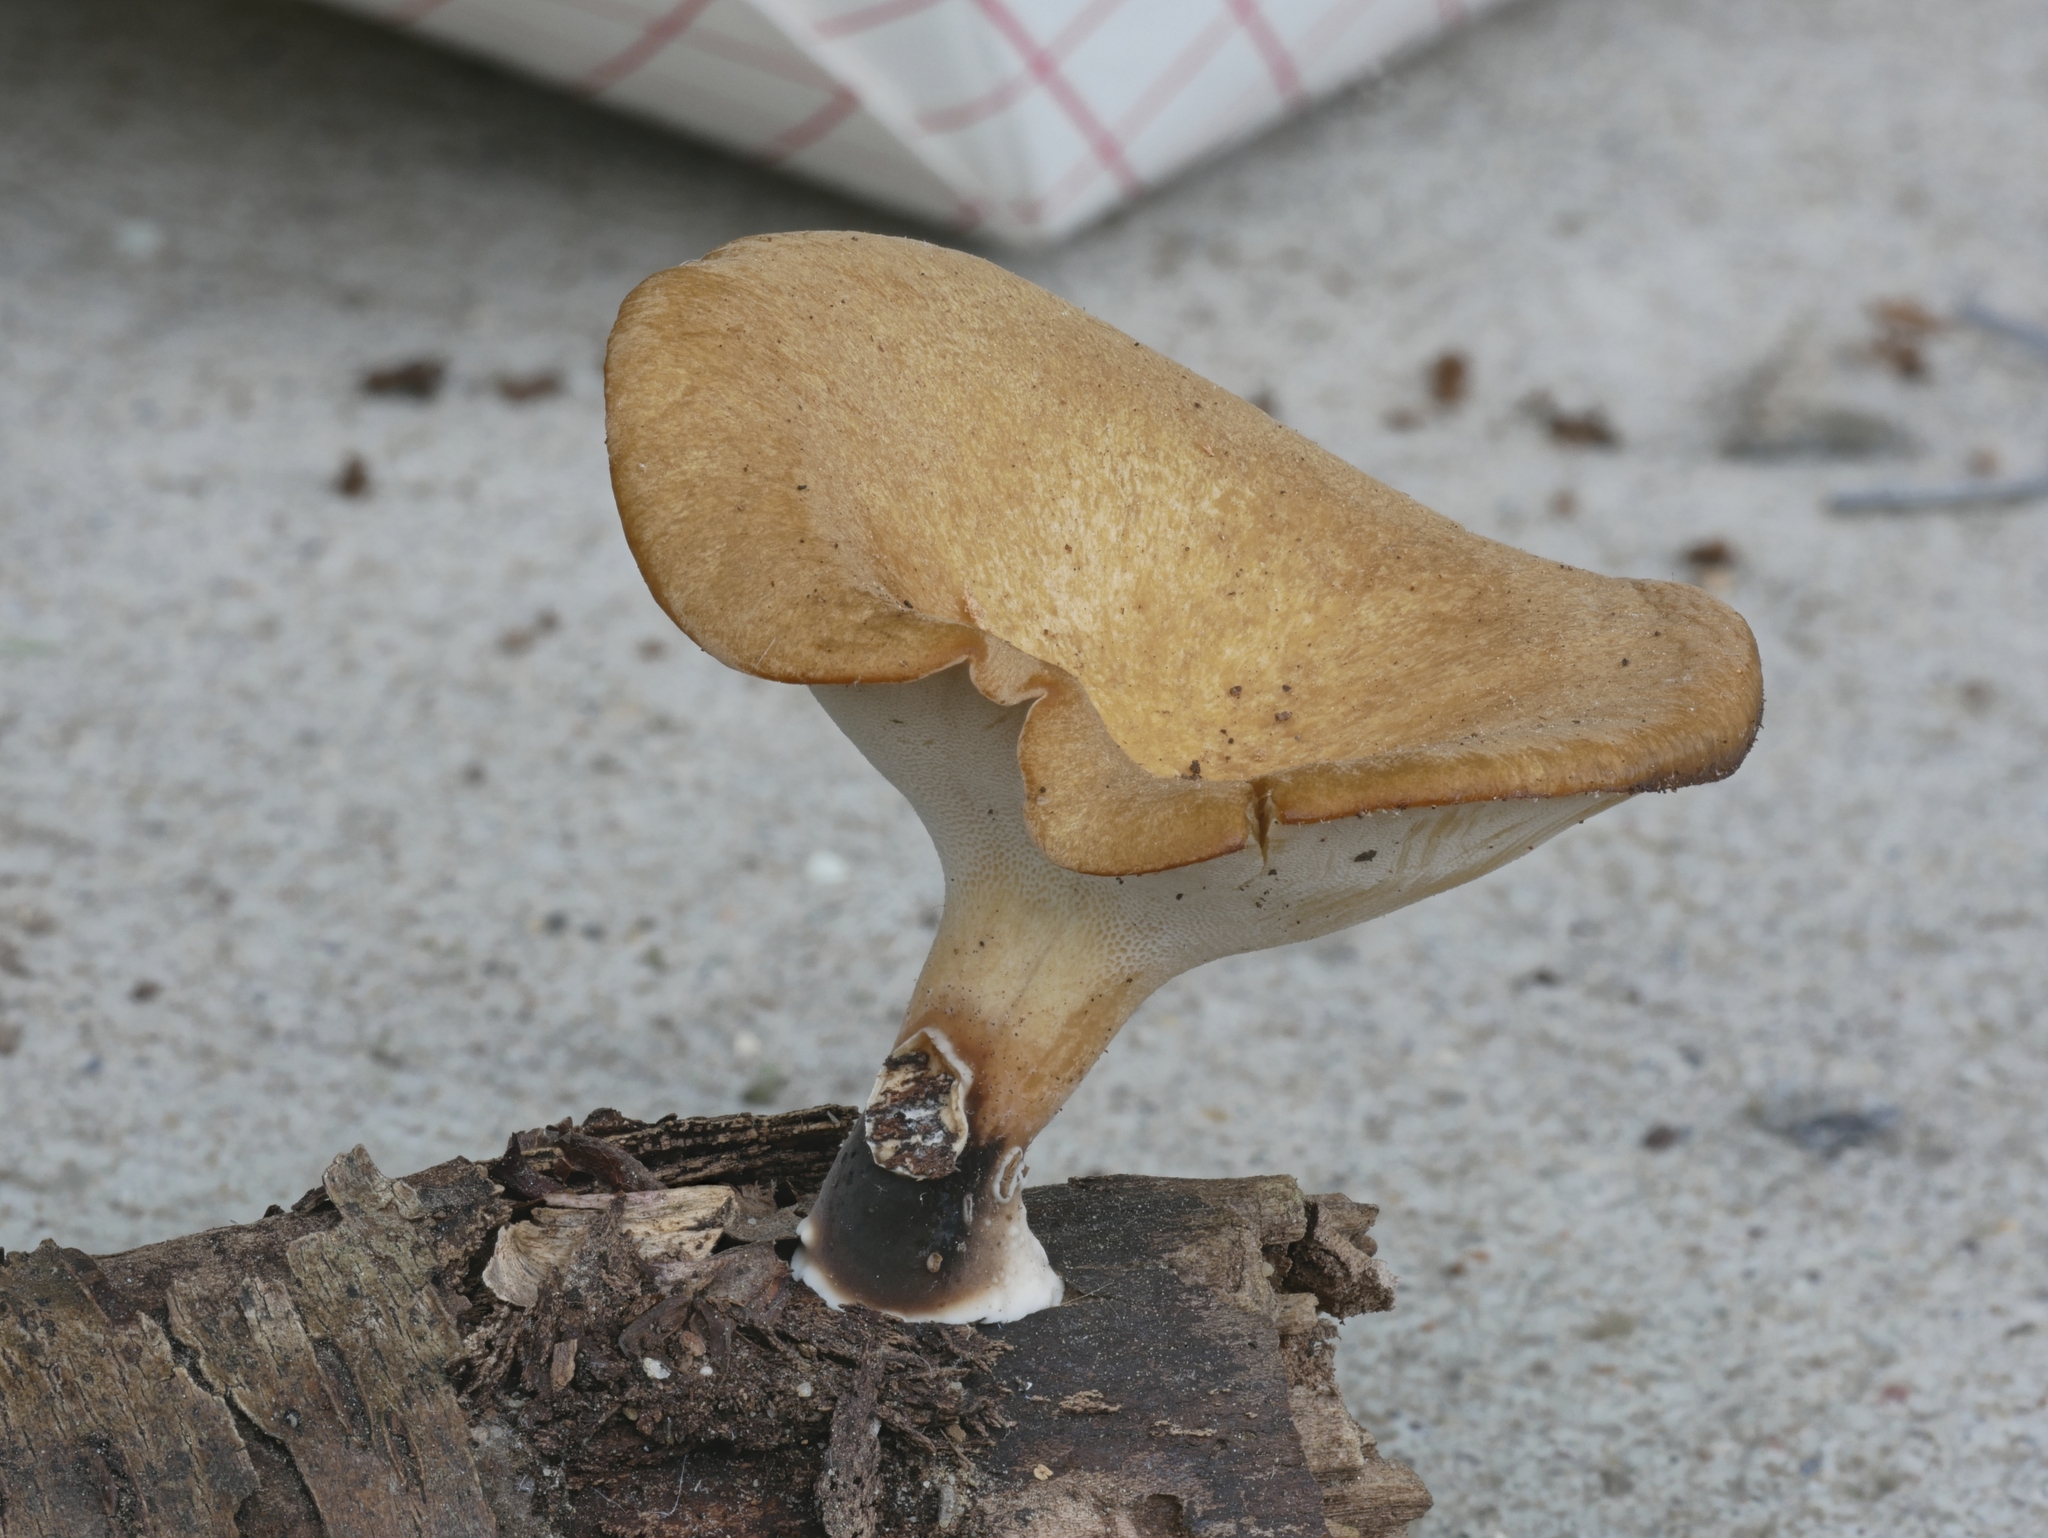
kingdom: Fungi
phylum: Basidiomycota
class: Agaricomycetes
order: Polyporales
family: Polyporaceae
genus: Cerioporus
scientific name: Cerioporus varius
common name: Elegant polypore
